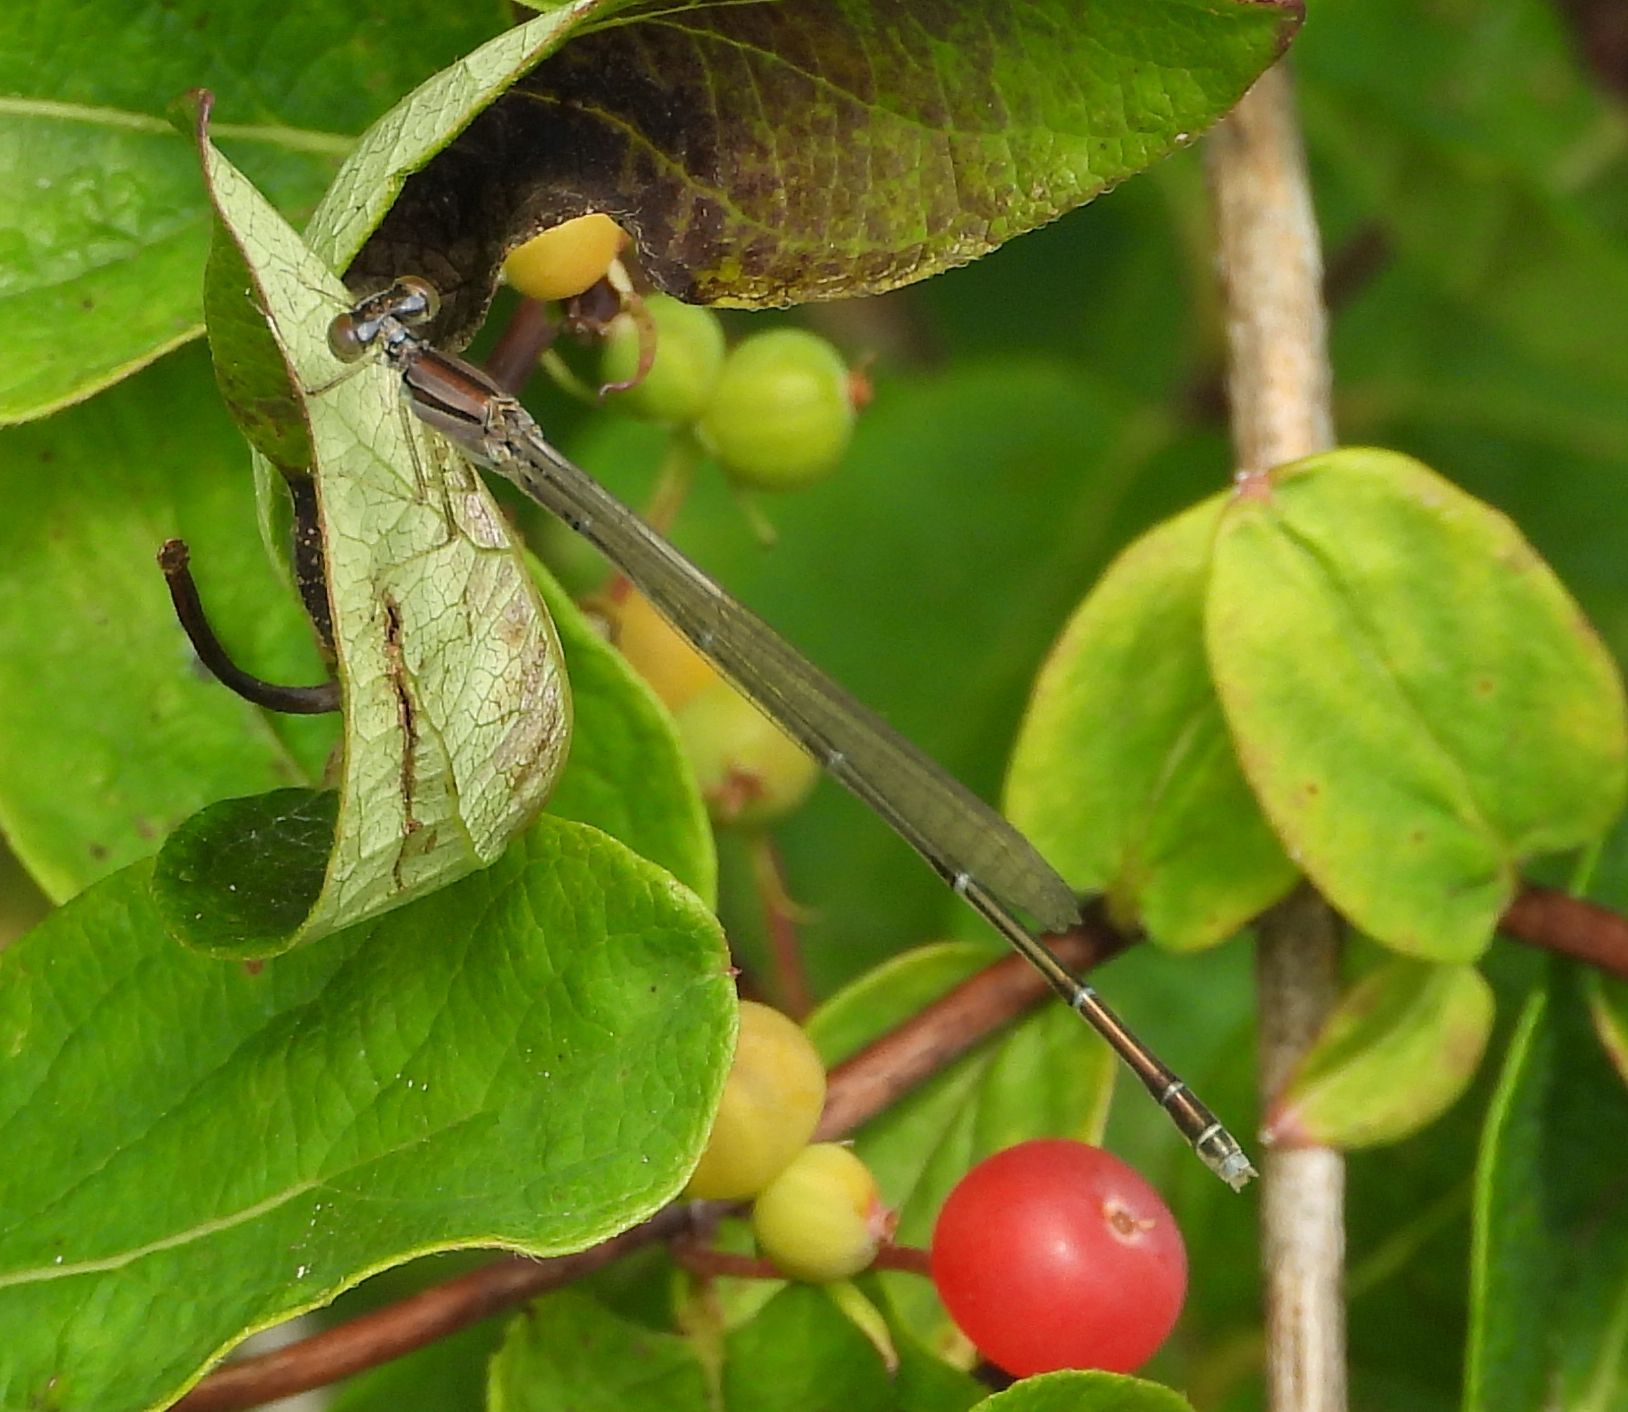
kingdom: Animalia
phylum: Arthropoda
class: Insecta
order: Odonata
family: Coenagrionidae
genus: Enallagma
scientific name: Enallagma signatum
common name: Orange bluet
